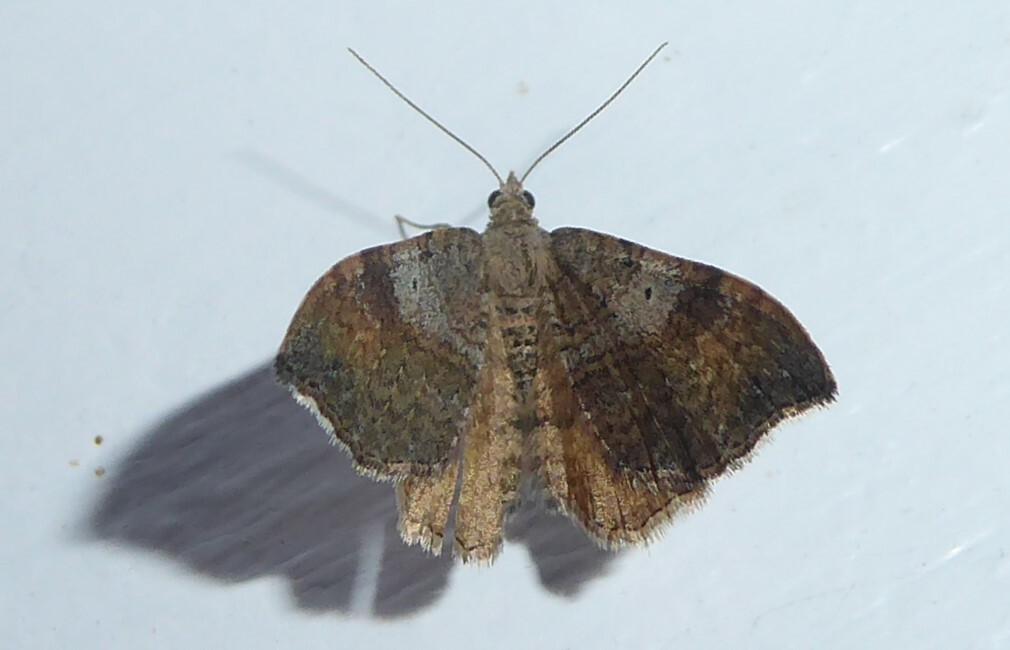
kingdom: Animalia
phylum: Arthropoda
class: Insecta
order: Lepidoptera
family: Geometridae
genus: Homodotis
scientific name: Homodotis megaspilata
